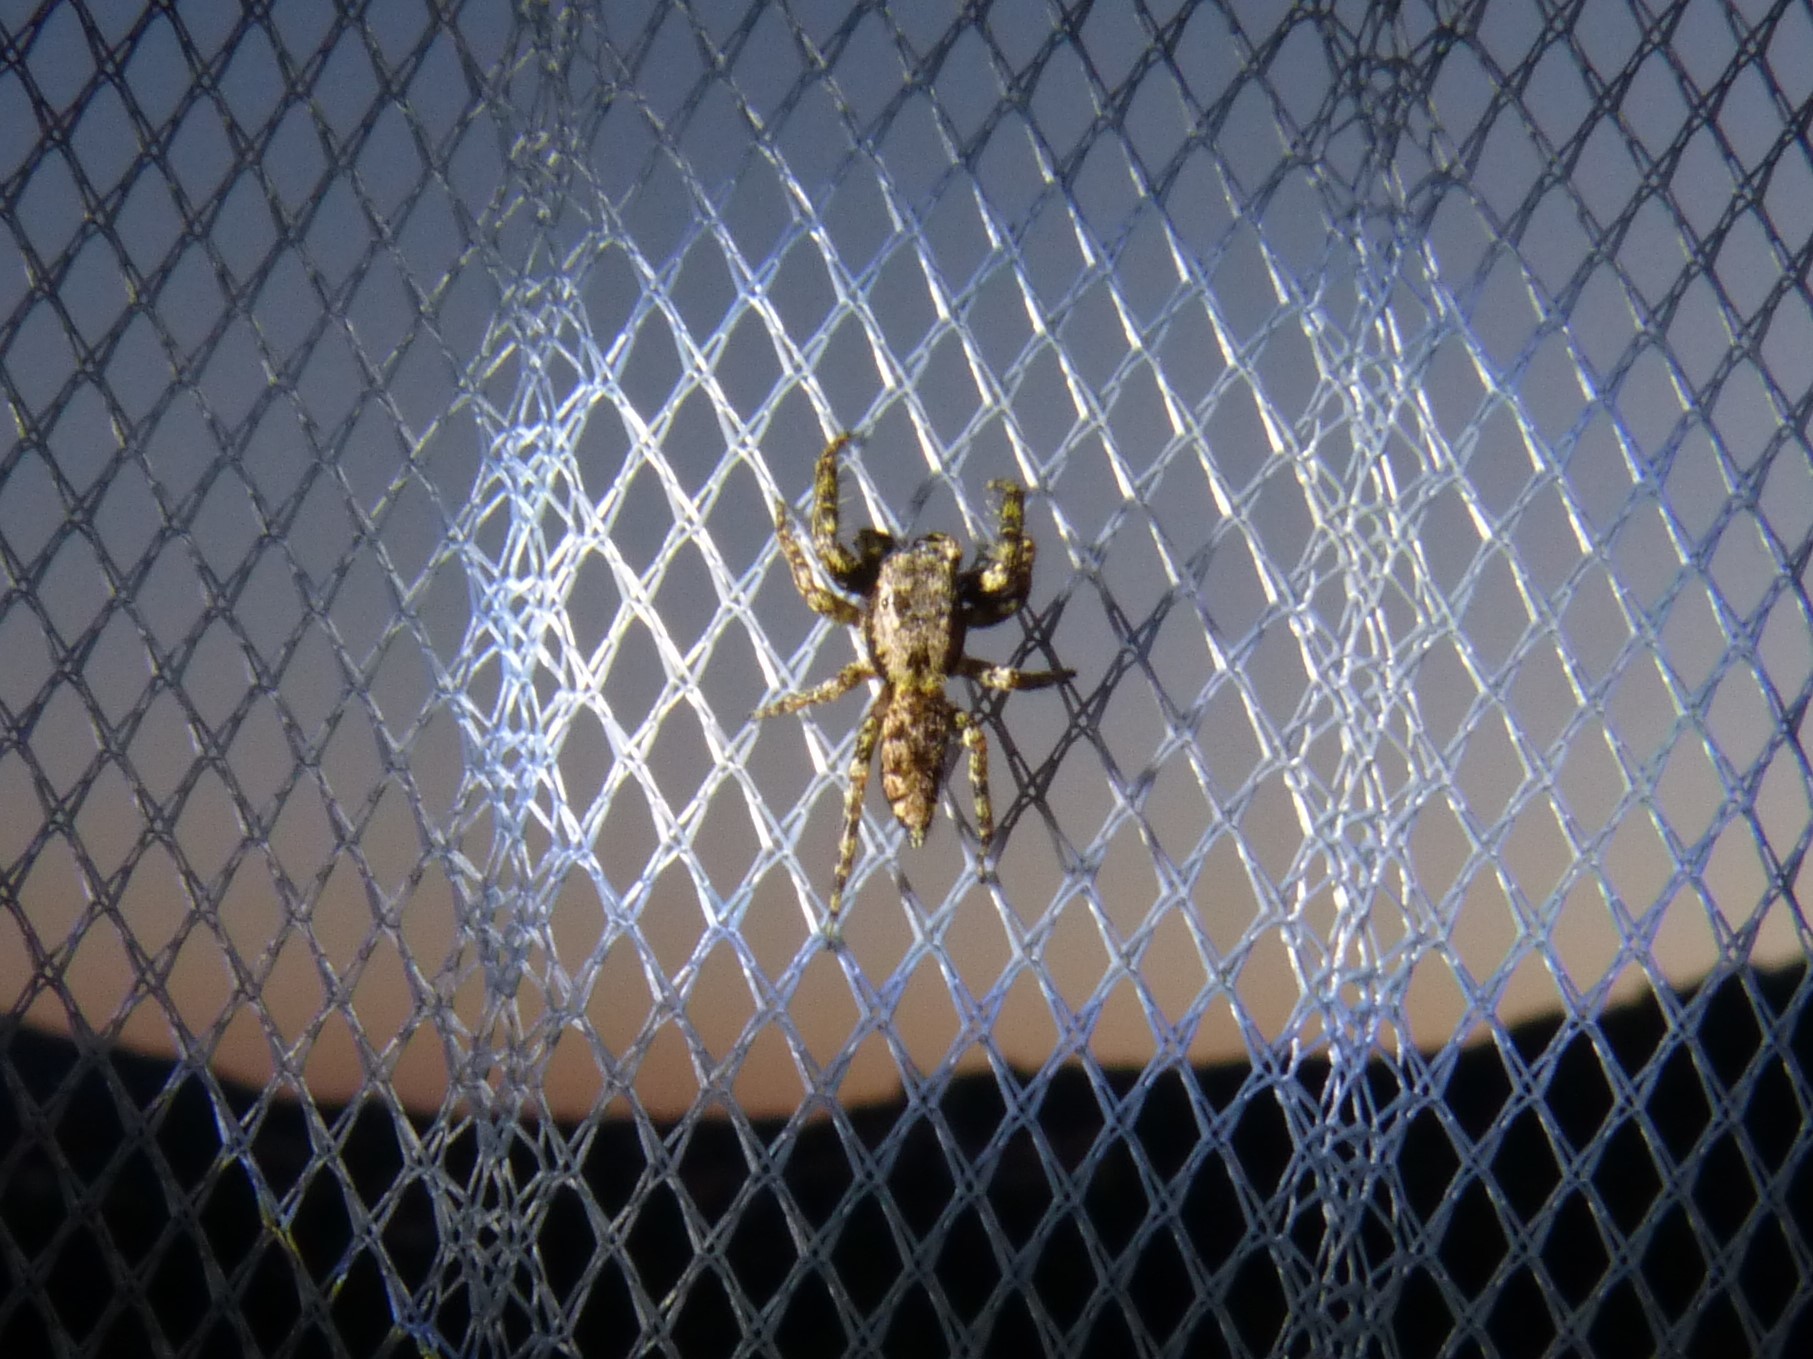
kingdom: Animalia
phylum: Arthropoda
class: Arachnida
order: Araneae
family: Salticidae
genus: Marpissa
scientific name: Marpissa muscosa
